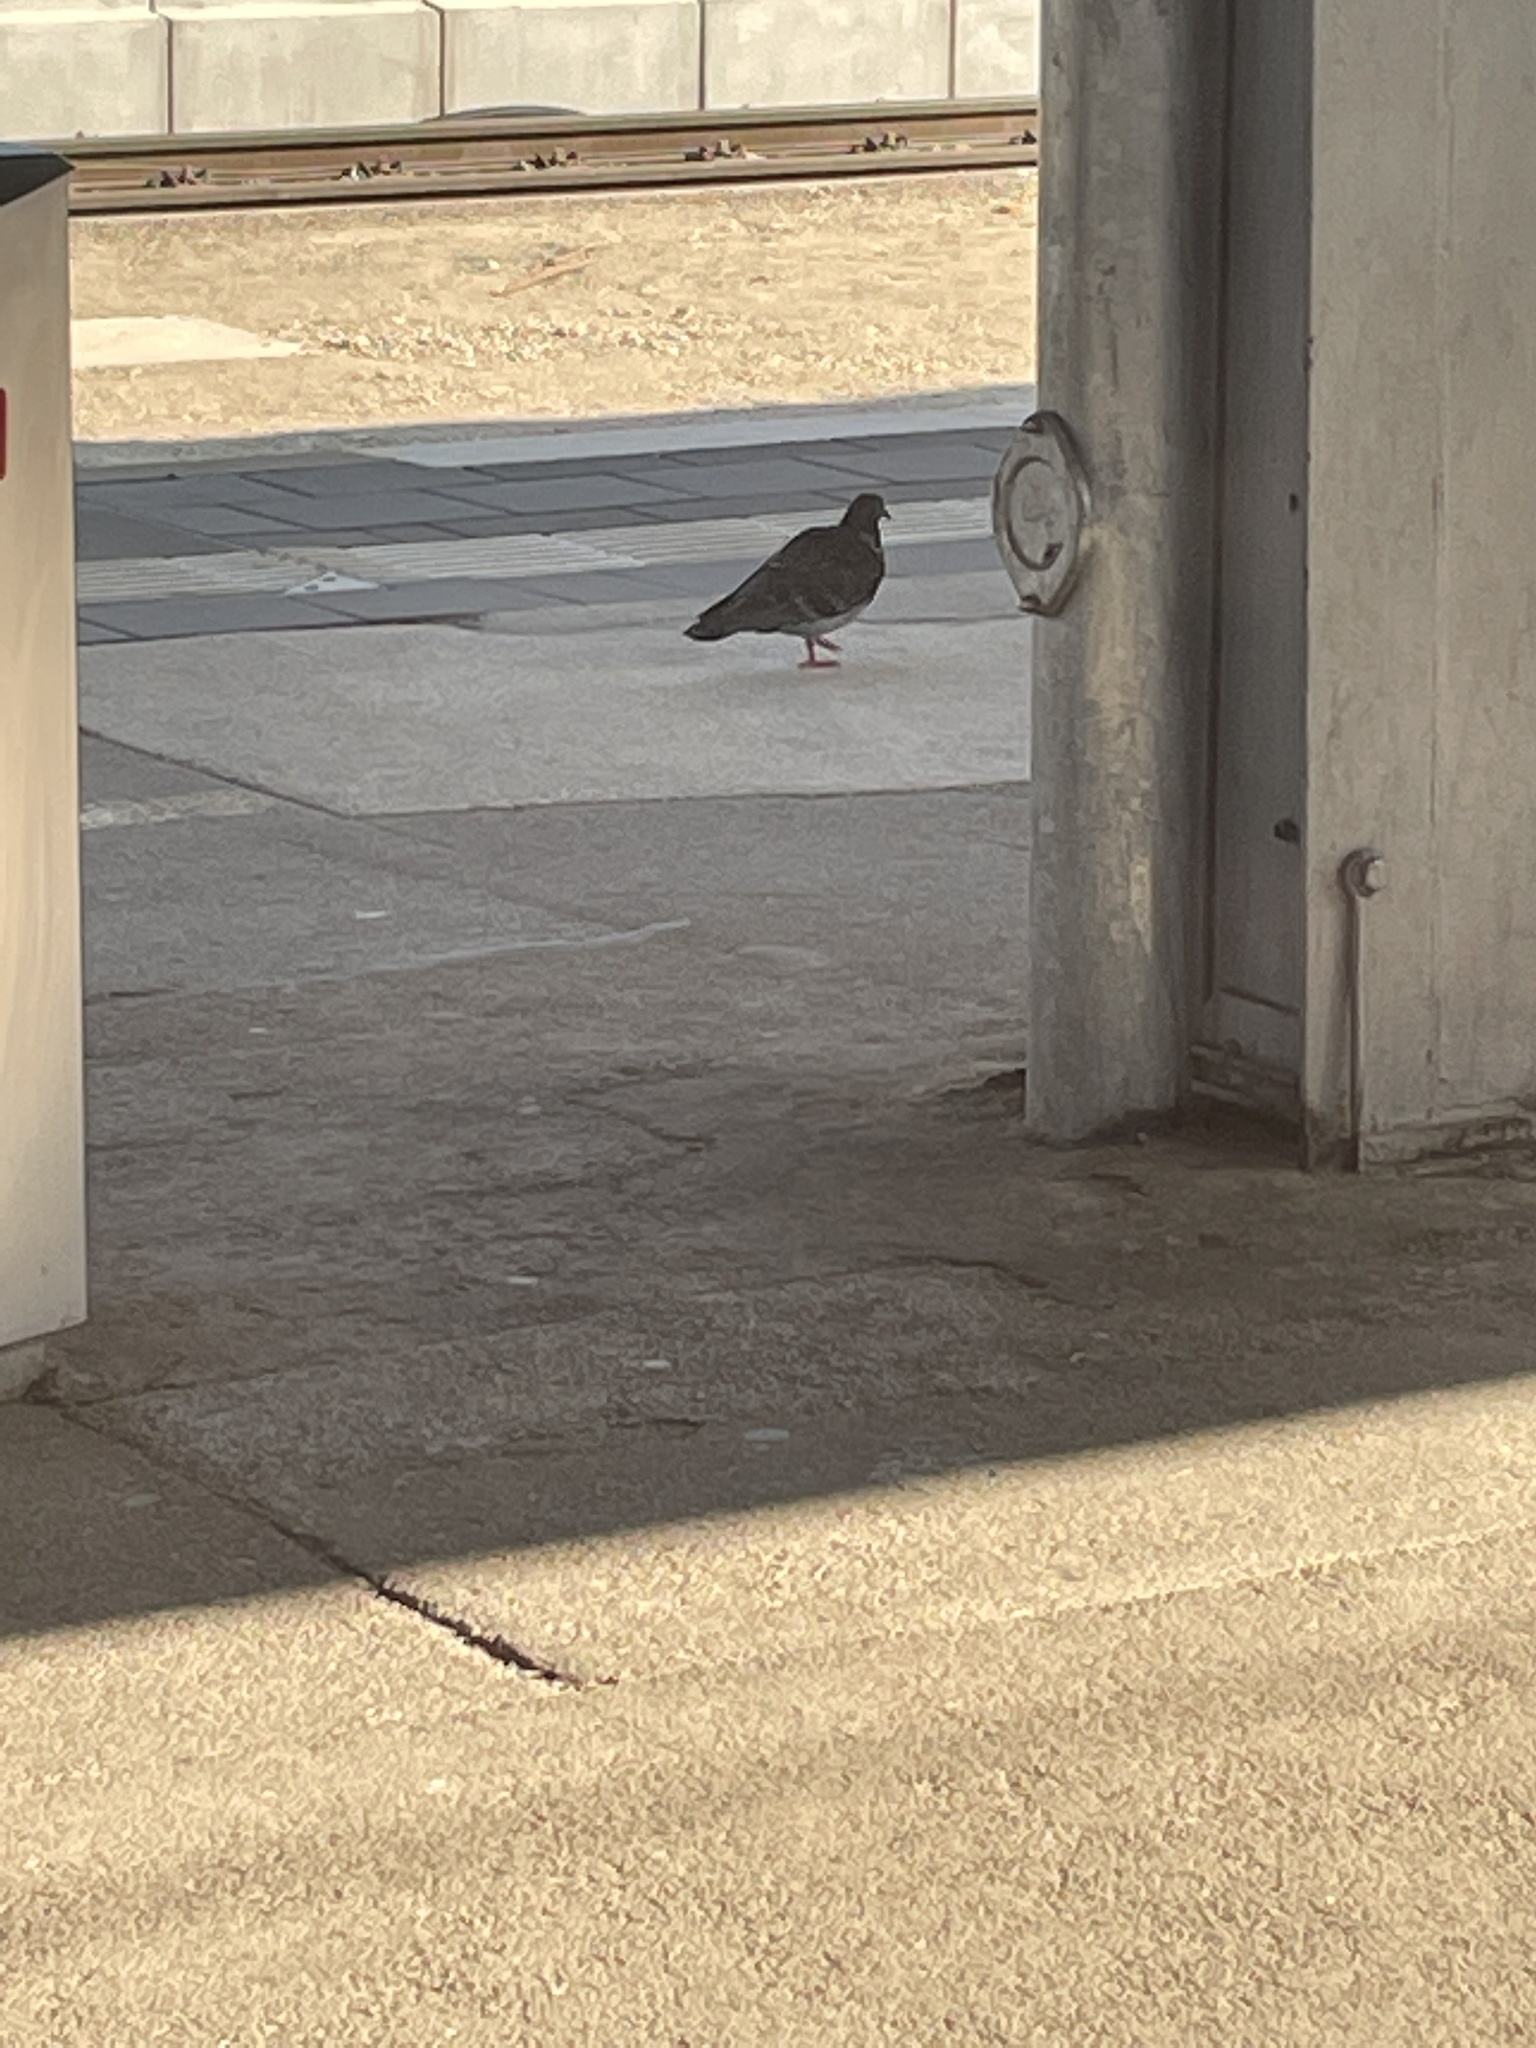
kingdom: Animalia
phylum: Chordata
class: Aves
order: Columbiformes
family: Columbidae
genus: Columba
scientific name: Columba livia
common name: Rock pigeon
